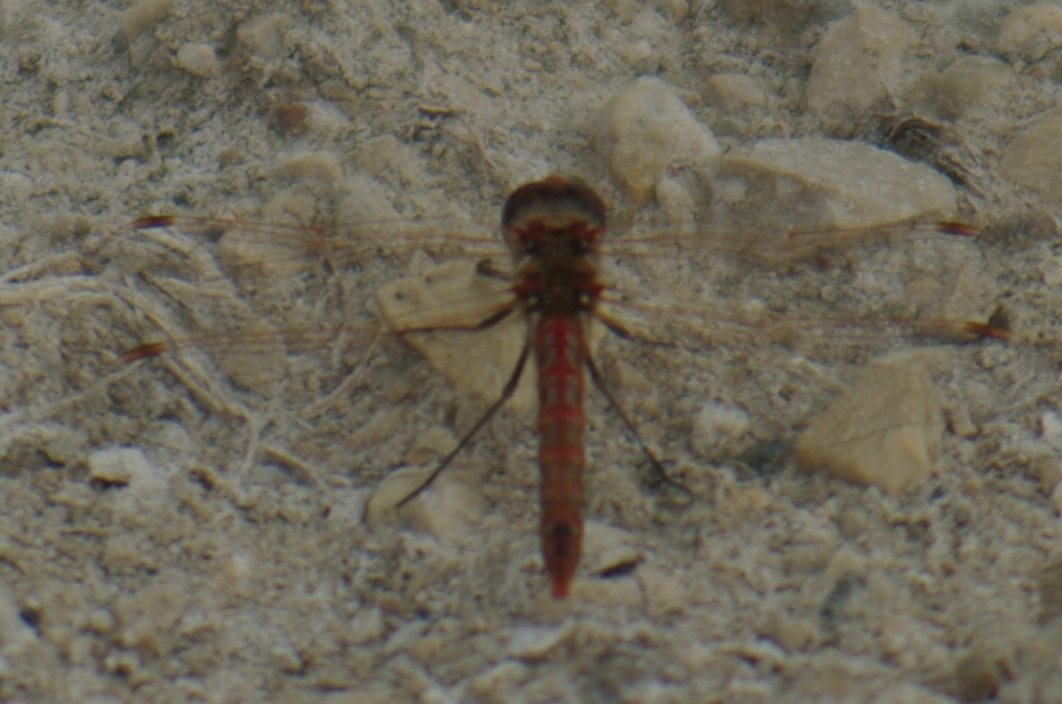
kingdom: Animalia
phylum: Arthropoda
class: Insecta
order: Odonata
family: Libellulidae
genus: Sympetrum
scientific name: Sympetrum corruptum
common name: Variegated meadowhawk
